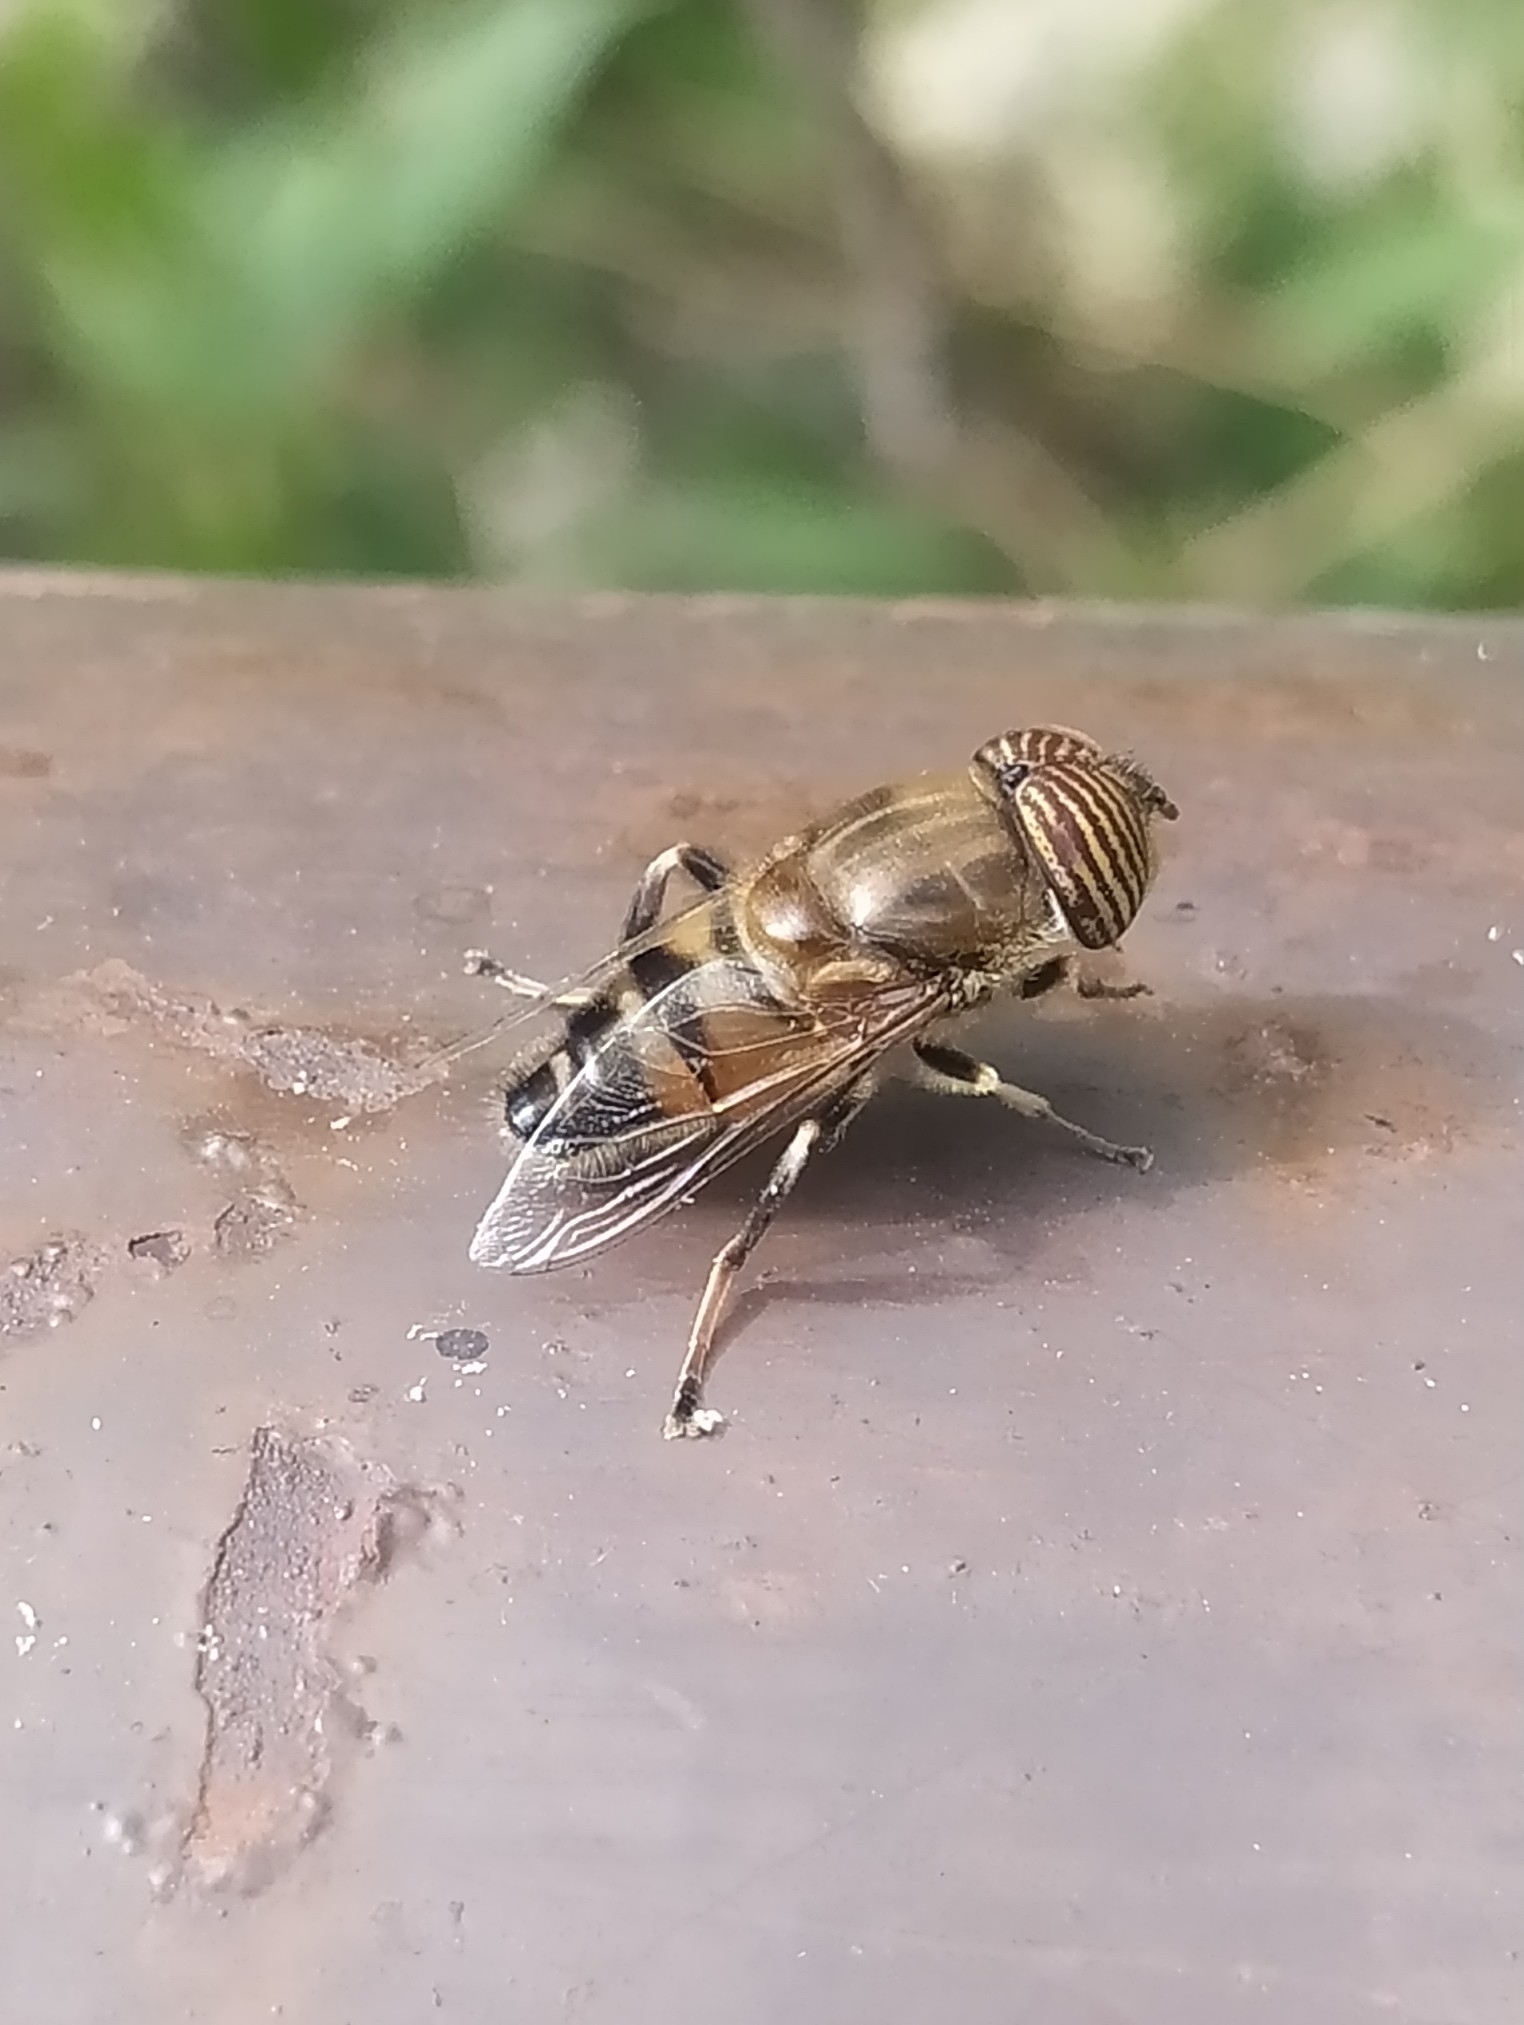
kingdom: Animalia
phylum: Arthropoda
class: Insecta
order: Diptera
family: Syrphidae
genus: Eristalinus
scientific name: Eristalinus taeniops
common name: Syrphid fly
